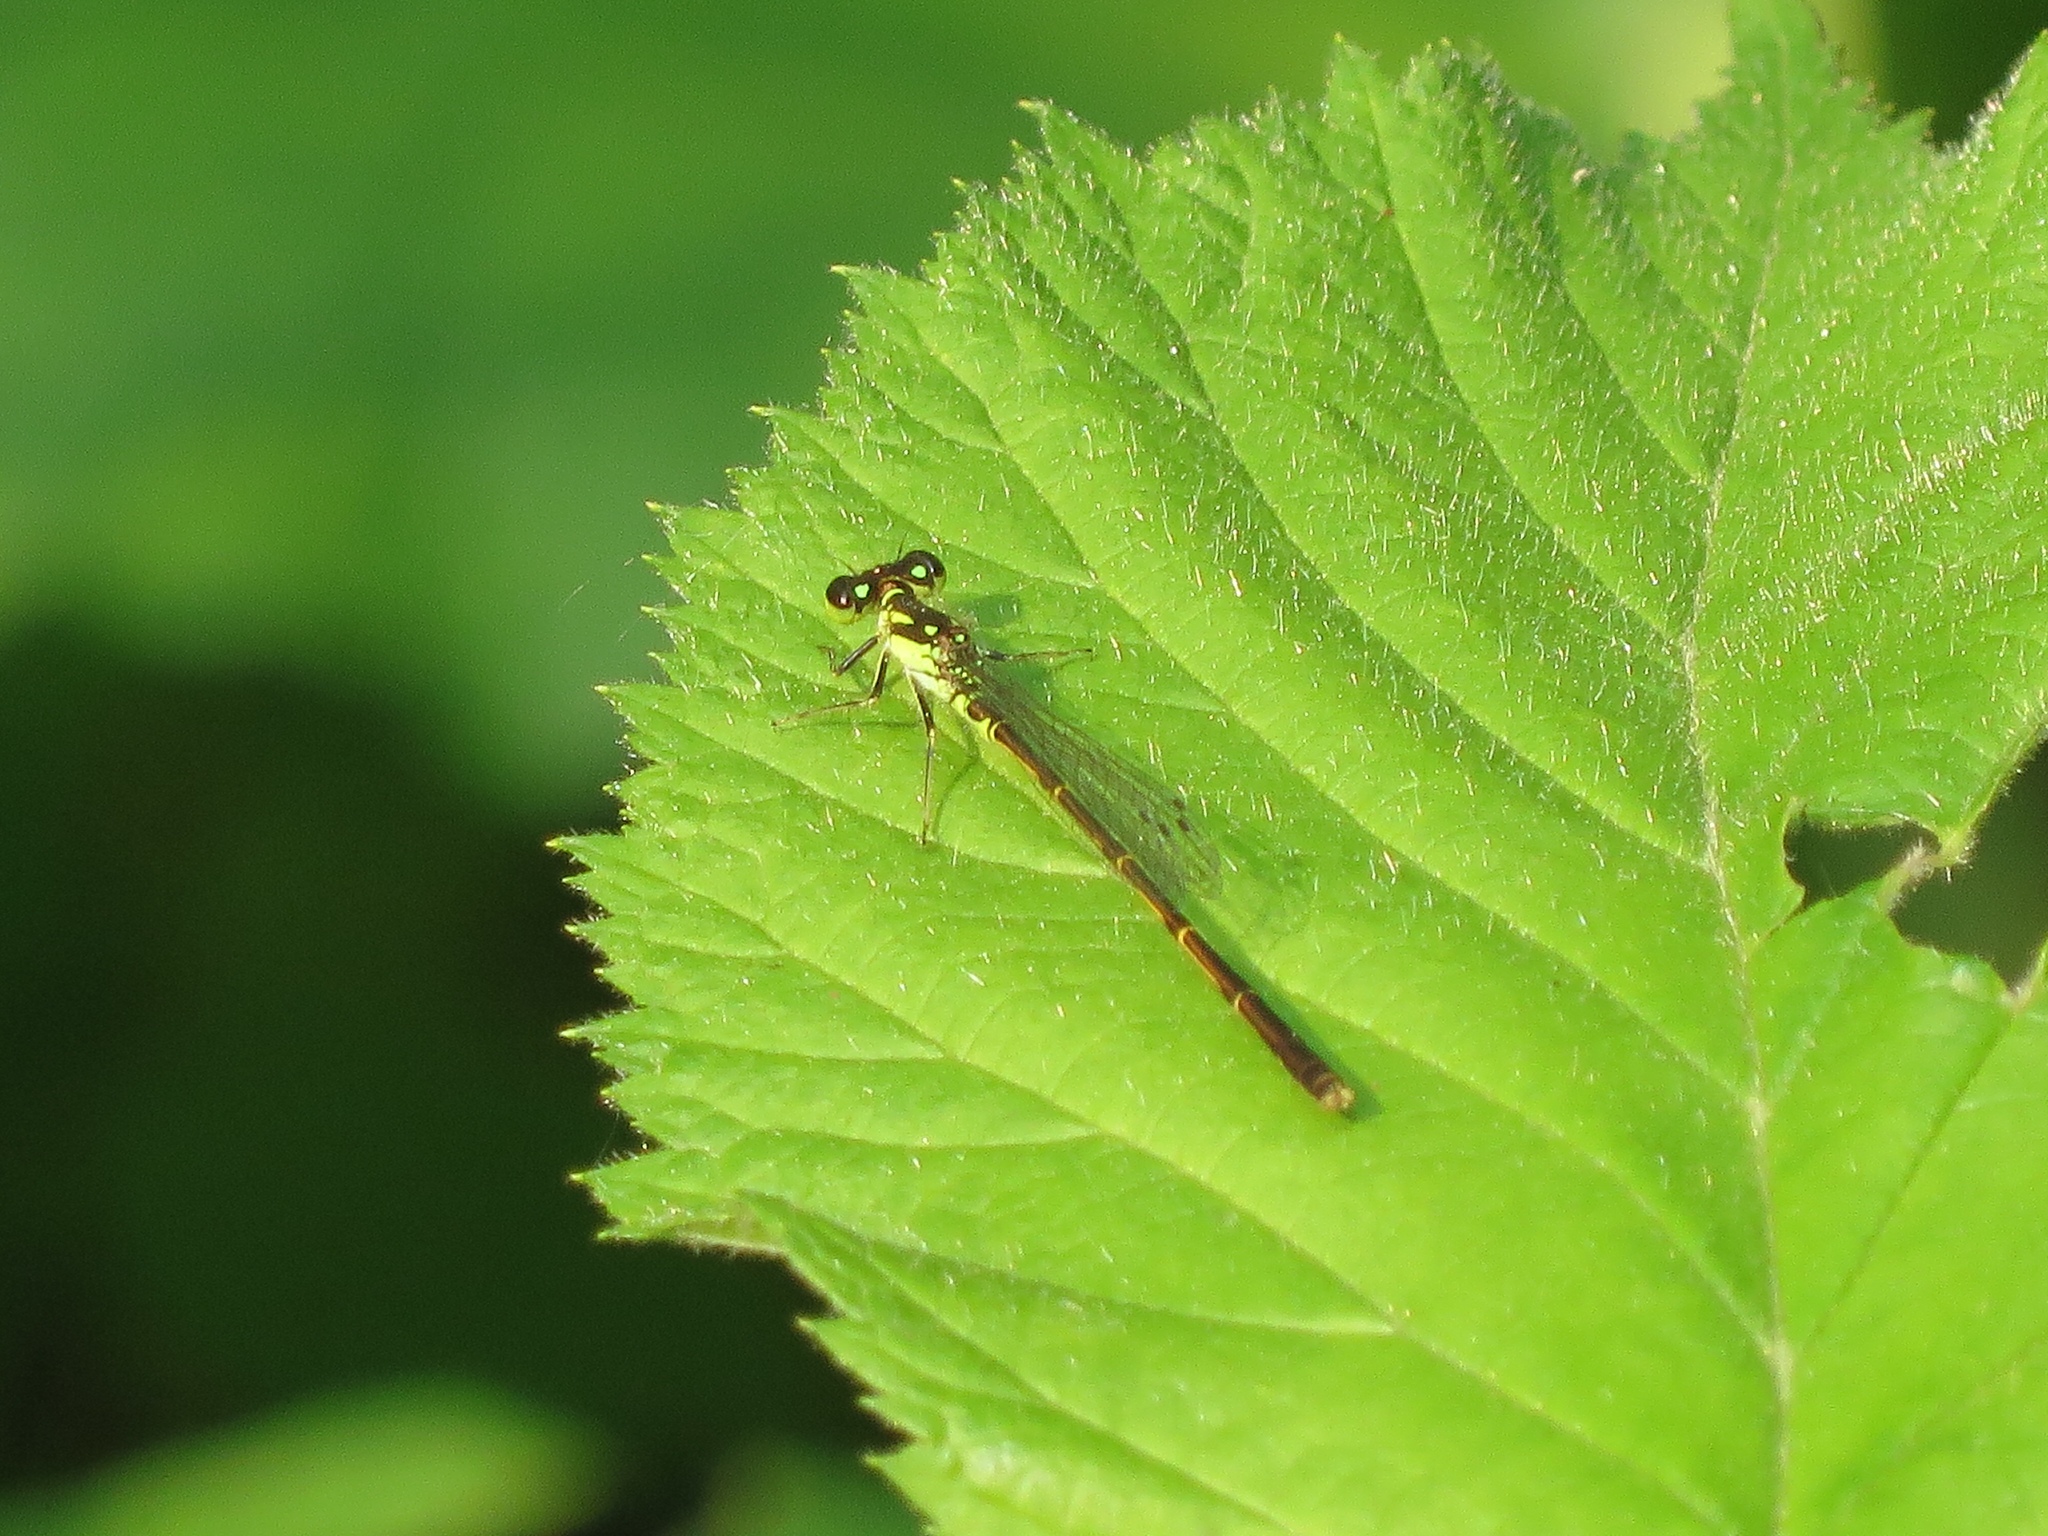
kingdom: Animalia
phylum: Arthropoda
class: Insecta
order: Odonata
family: Coenagrionidae
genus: Ischnura
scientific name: Ischnura posita
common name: Fragile forktail
